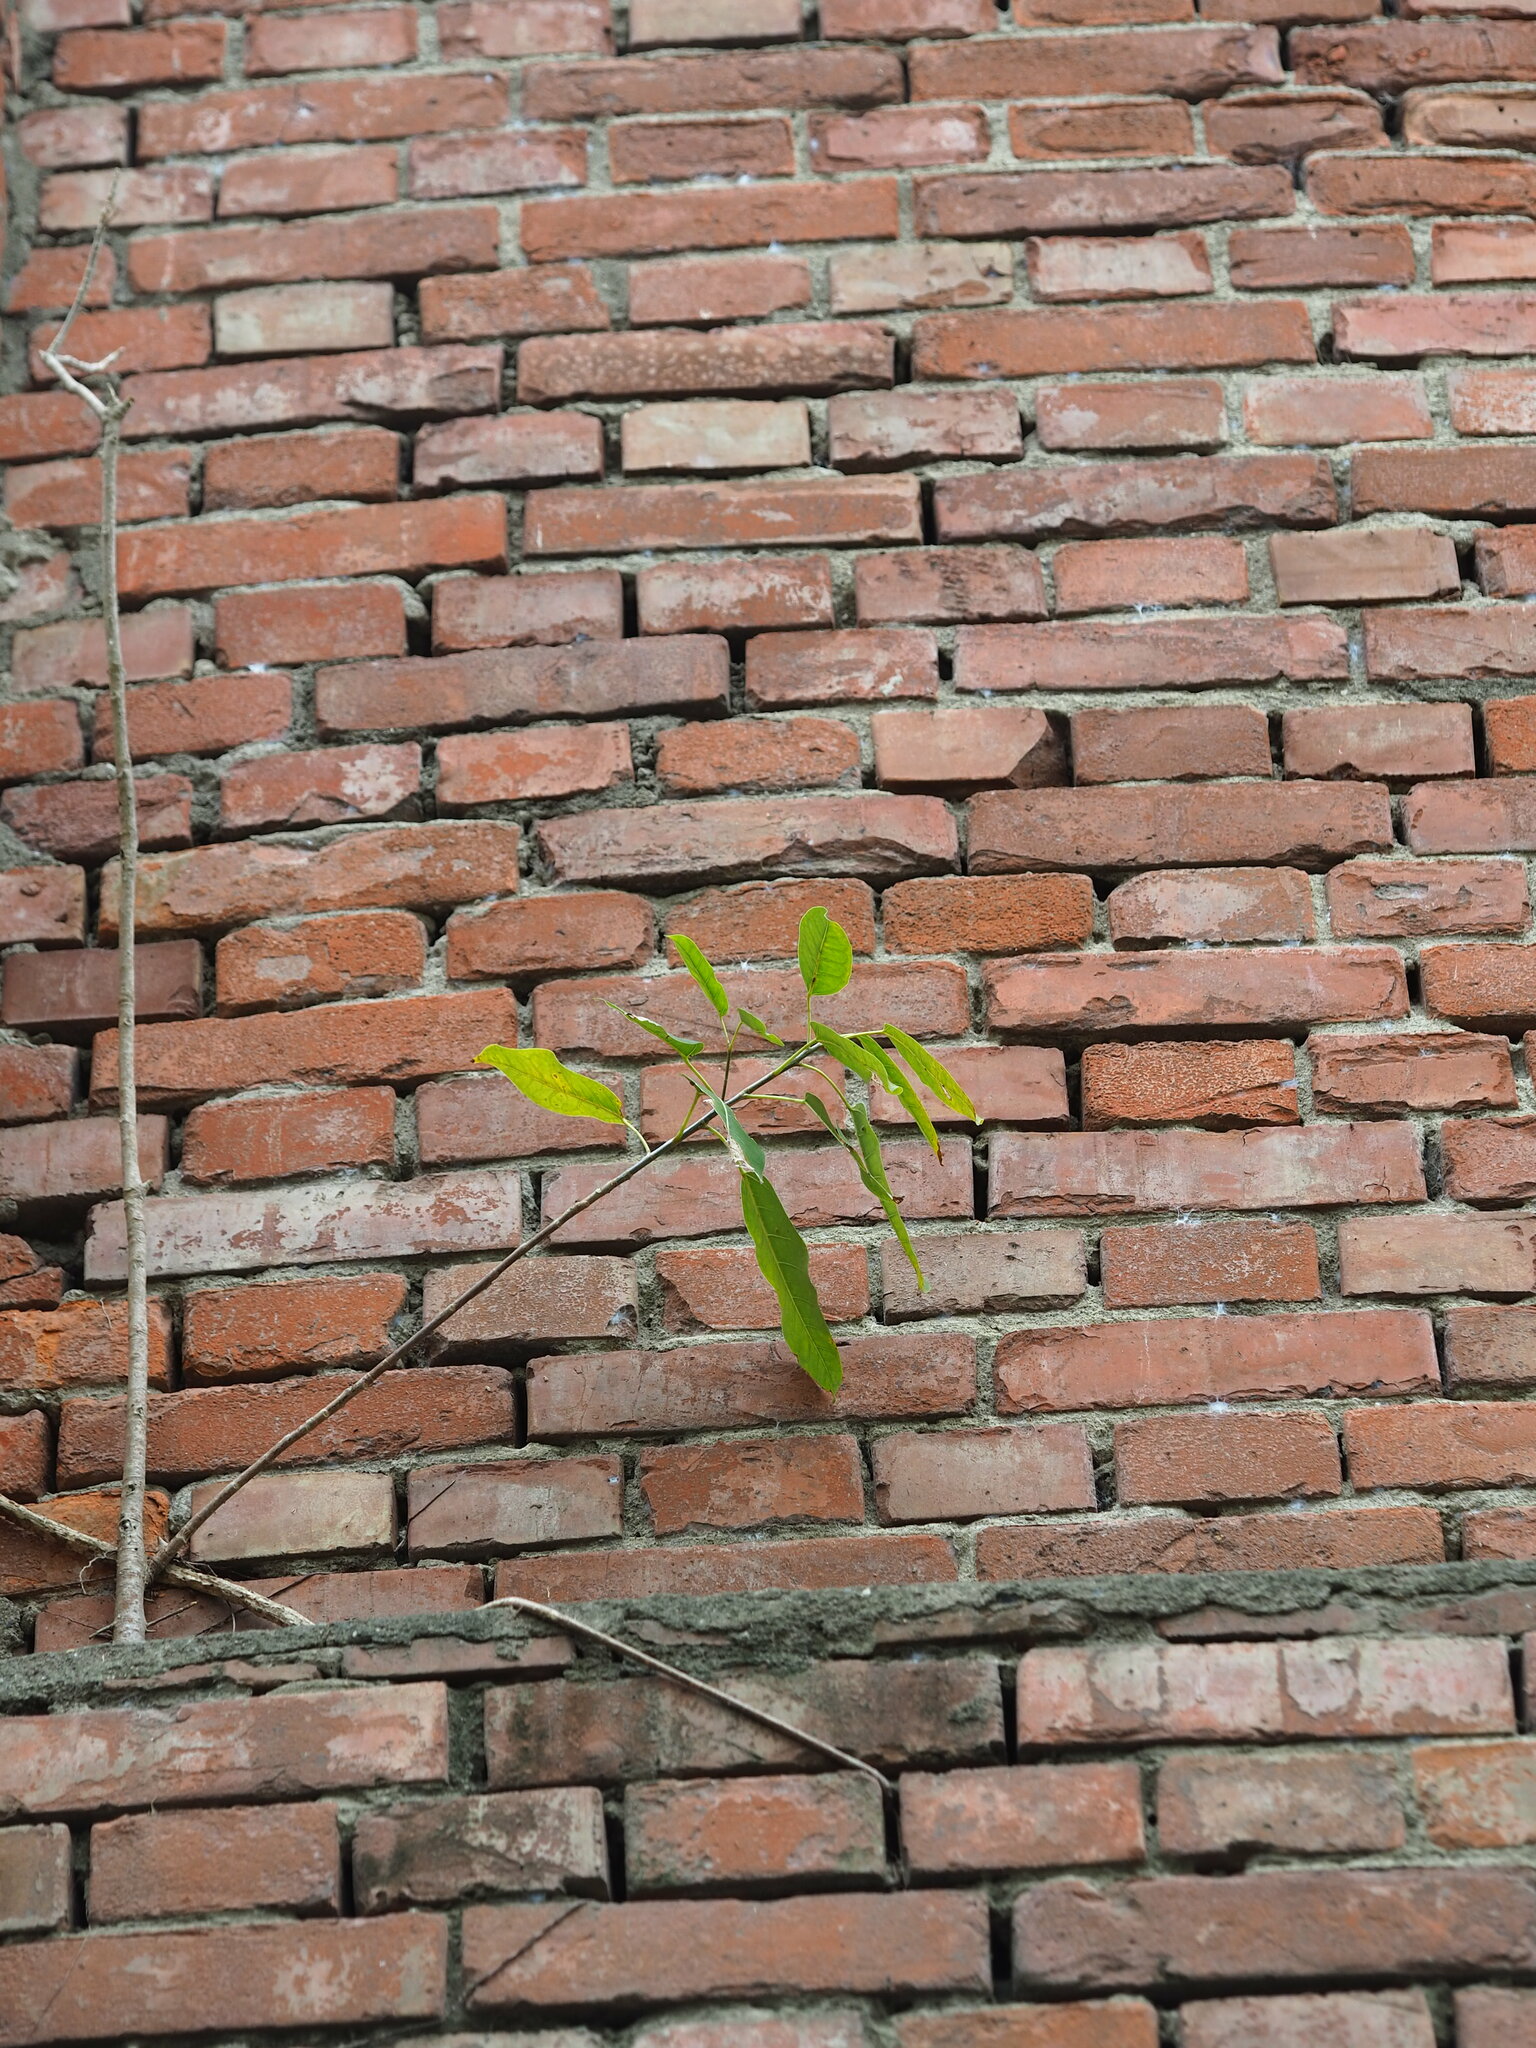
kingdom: Plantae
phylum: Tracheophyta
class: Magnoliopsida
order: Rosales
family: Moraceae
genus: Ficus
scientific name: Ficus subpisocarpa
